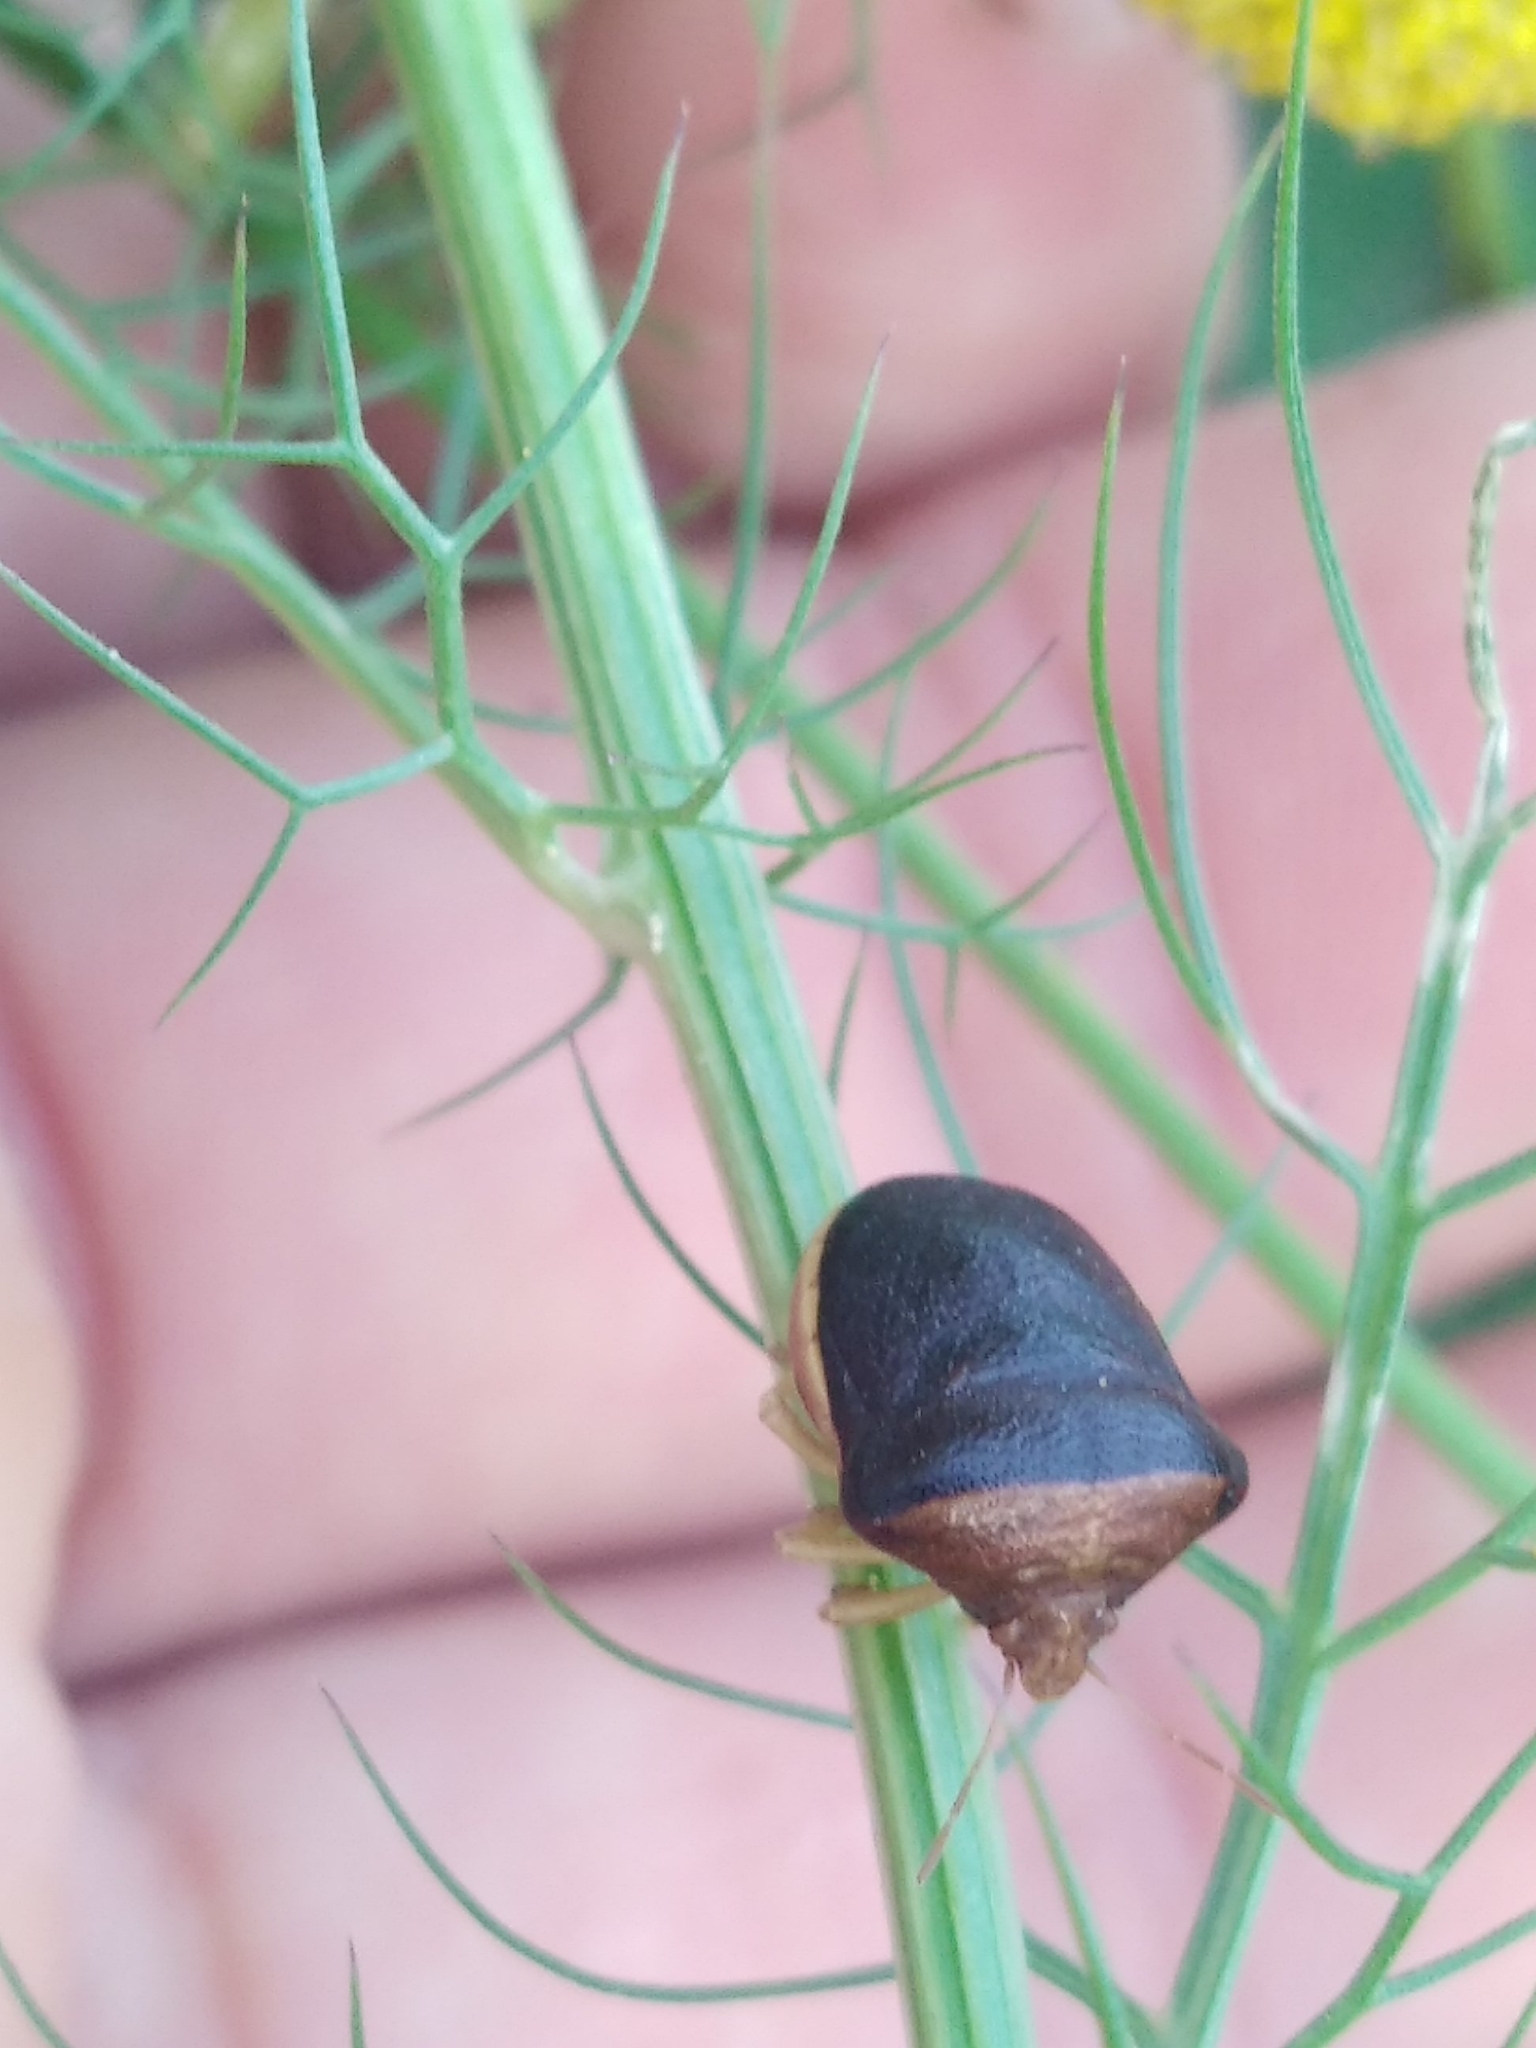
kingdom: Animalia
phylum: Arthropoda
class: Insecta
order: Hemiptera
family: Pentatomidae
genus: Ventocoris
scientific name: Ventocoris rusticus
